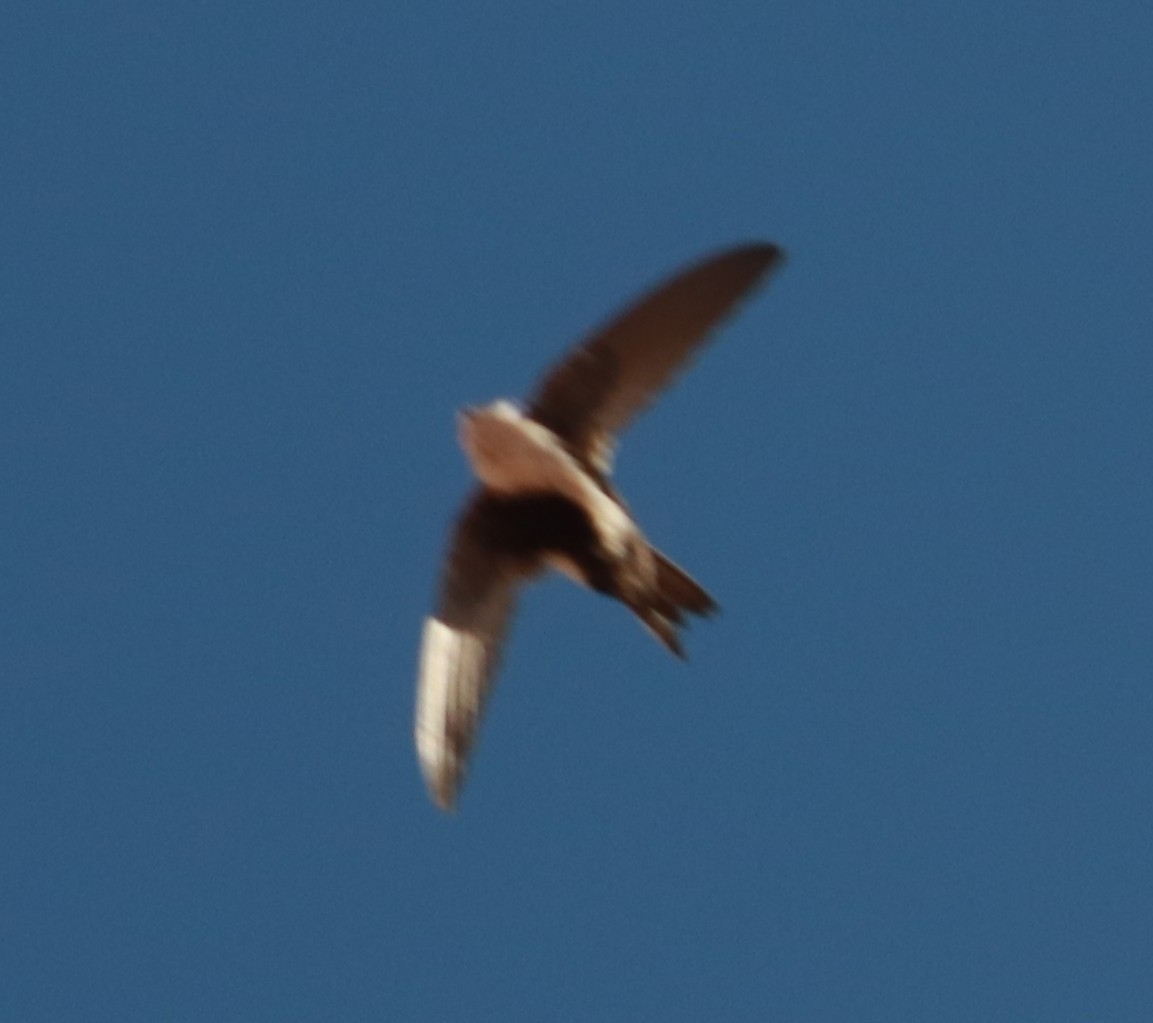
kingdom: Animalia
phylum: Chordata
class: Aves
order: Apodiformes
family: Apodidae
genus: Aeronautes
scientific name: Aeronautes saxatalis
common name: White-throated swift
